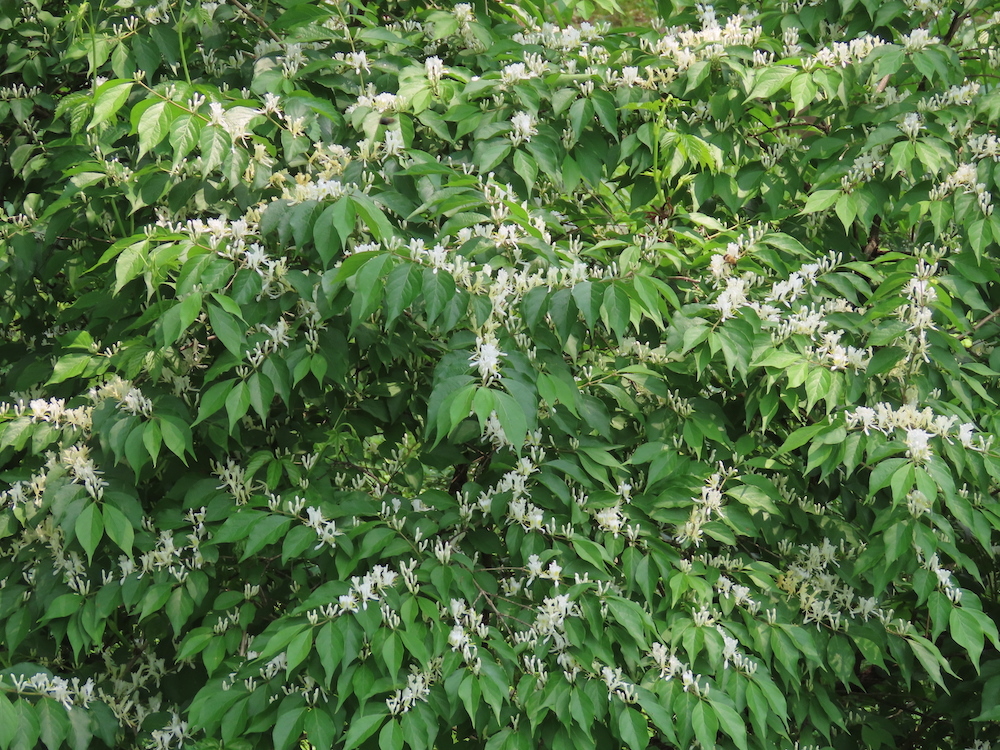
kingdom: Plantae
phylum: Tracheophyta
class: Magnoliopsida
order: Dipsacales
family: Caprifoliaceae
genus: Lonicera
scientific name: Lonicera maackii
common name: Amur honeysuckle
